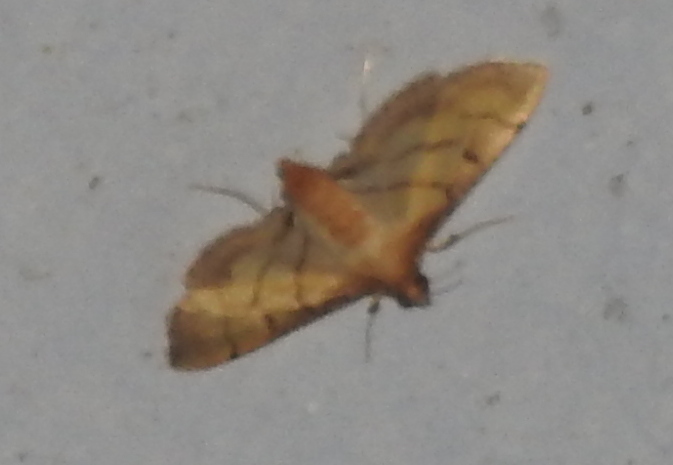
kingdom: Animalia
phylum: Arthropoda
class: Insecta
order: Lepidoptera
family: Crambidae
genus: Cnaphalocrocis
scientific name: Cnaphalocrocis poeyalis
